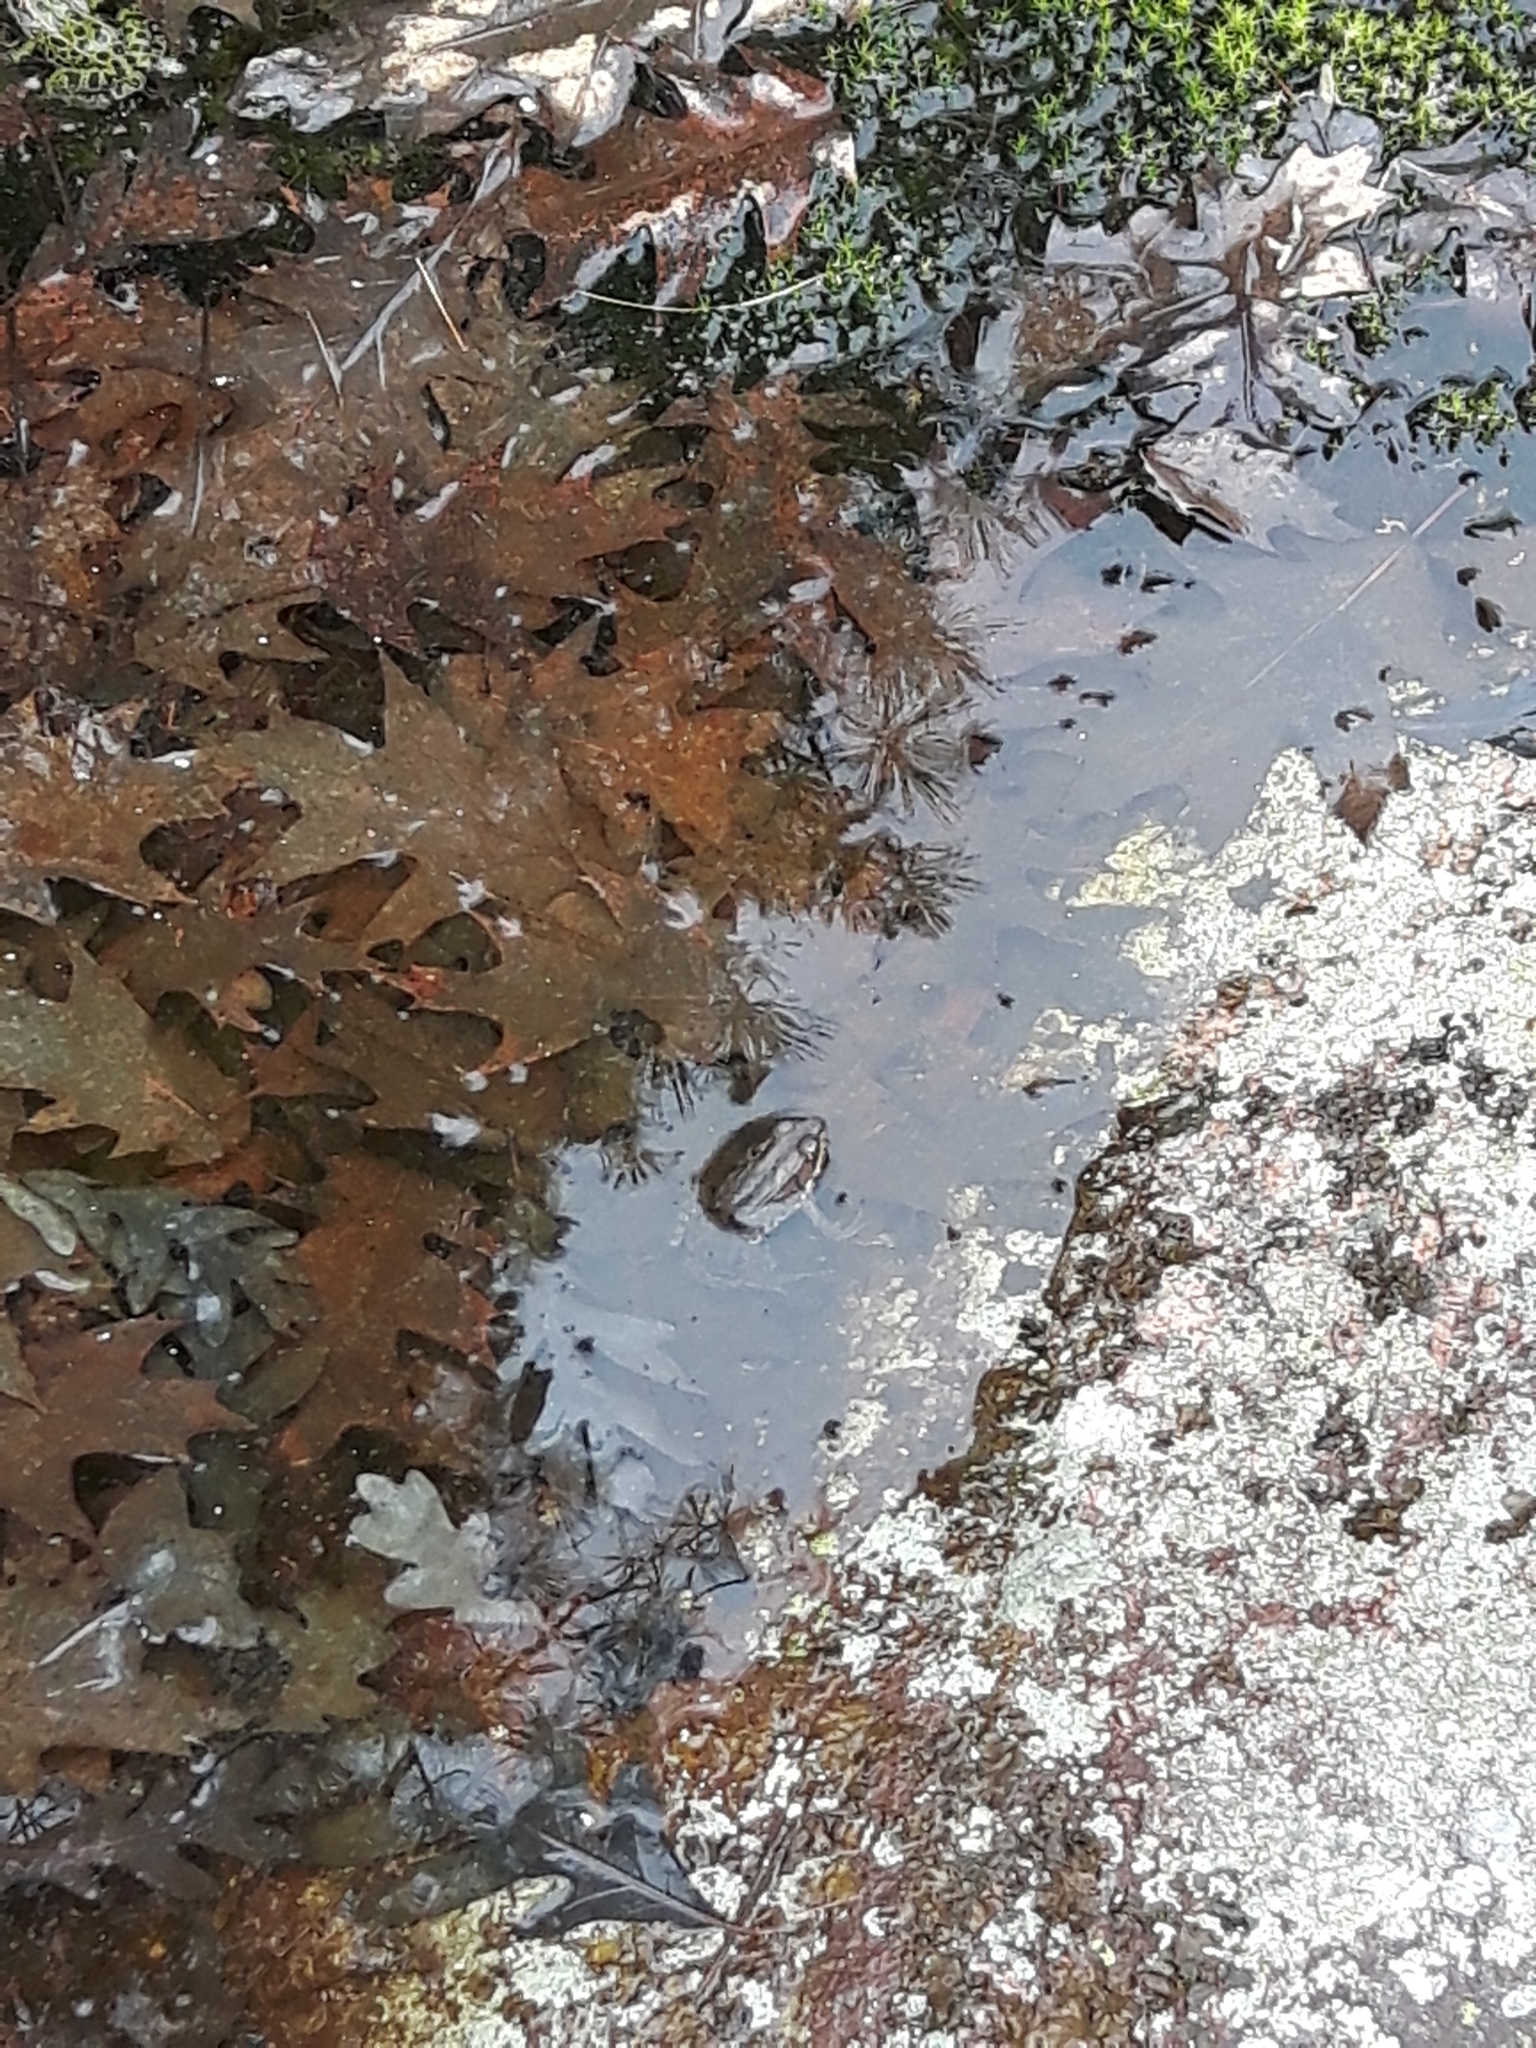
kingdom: Animalia
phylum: Chordata
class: Amphibia
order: Anura
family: Ranidae
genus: Lithobates
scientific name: Lithobates clamitans
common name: Green frog
